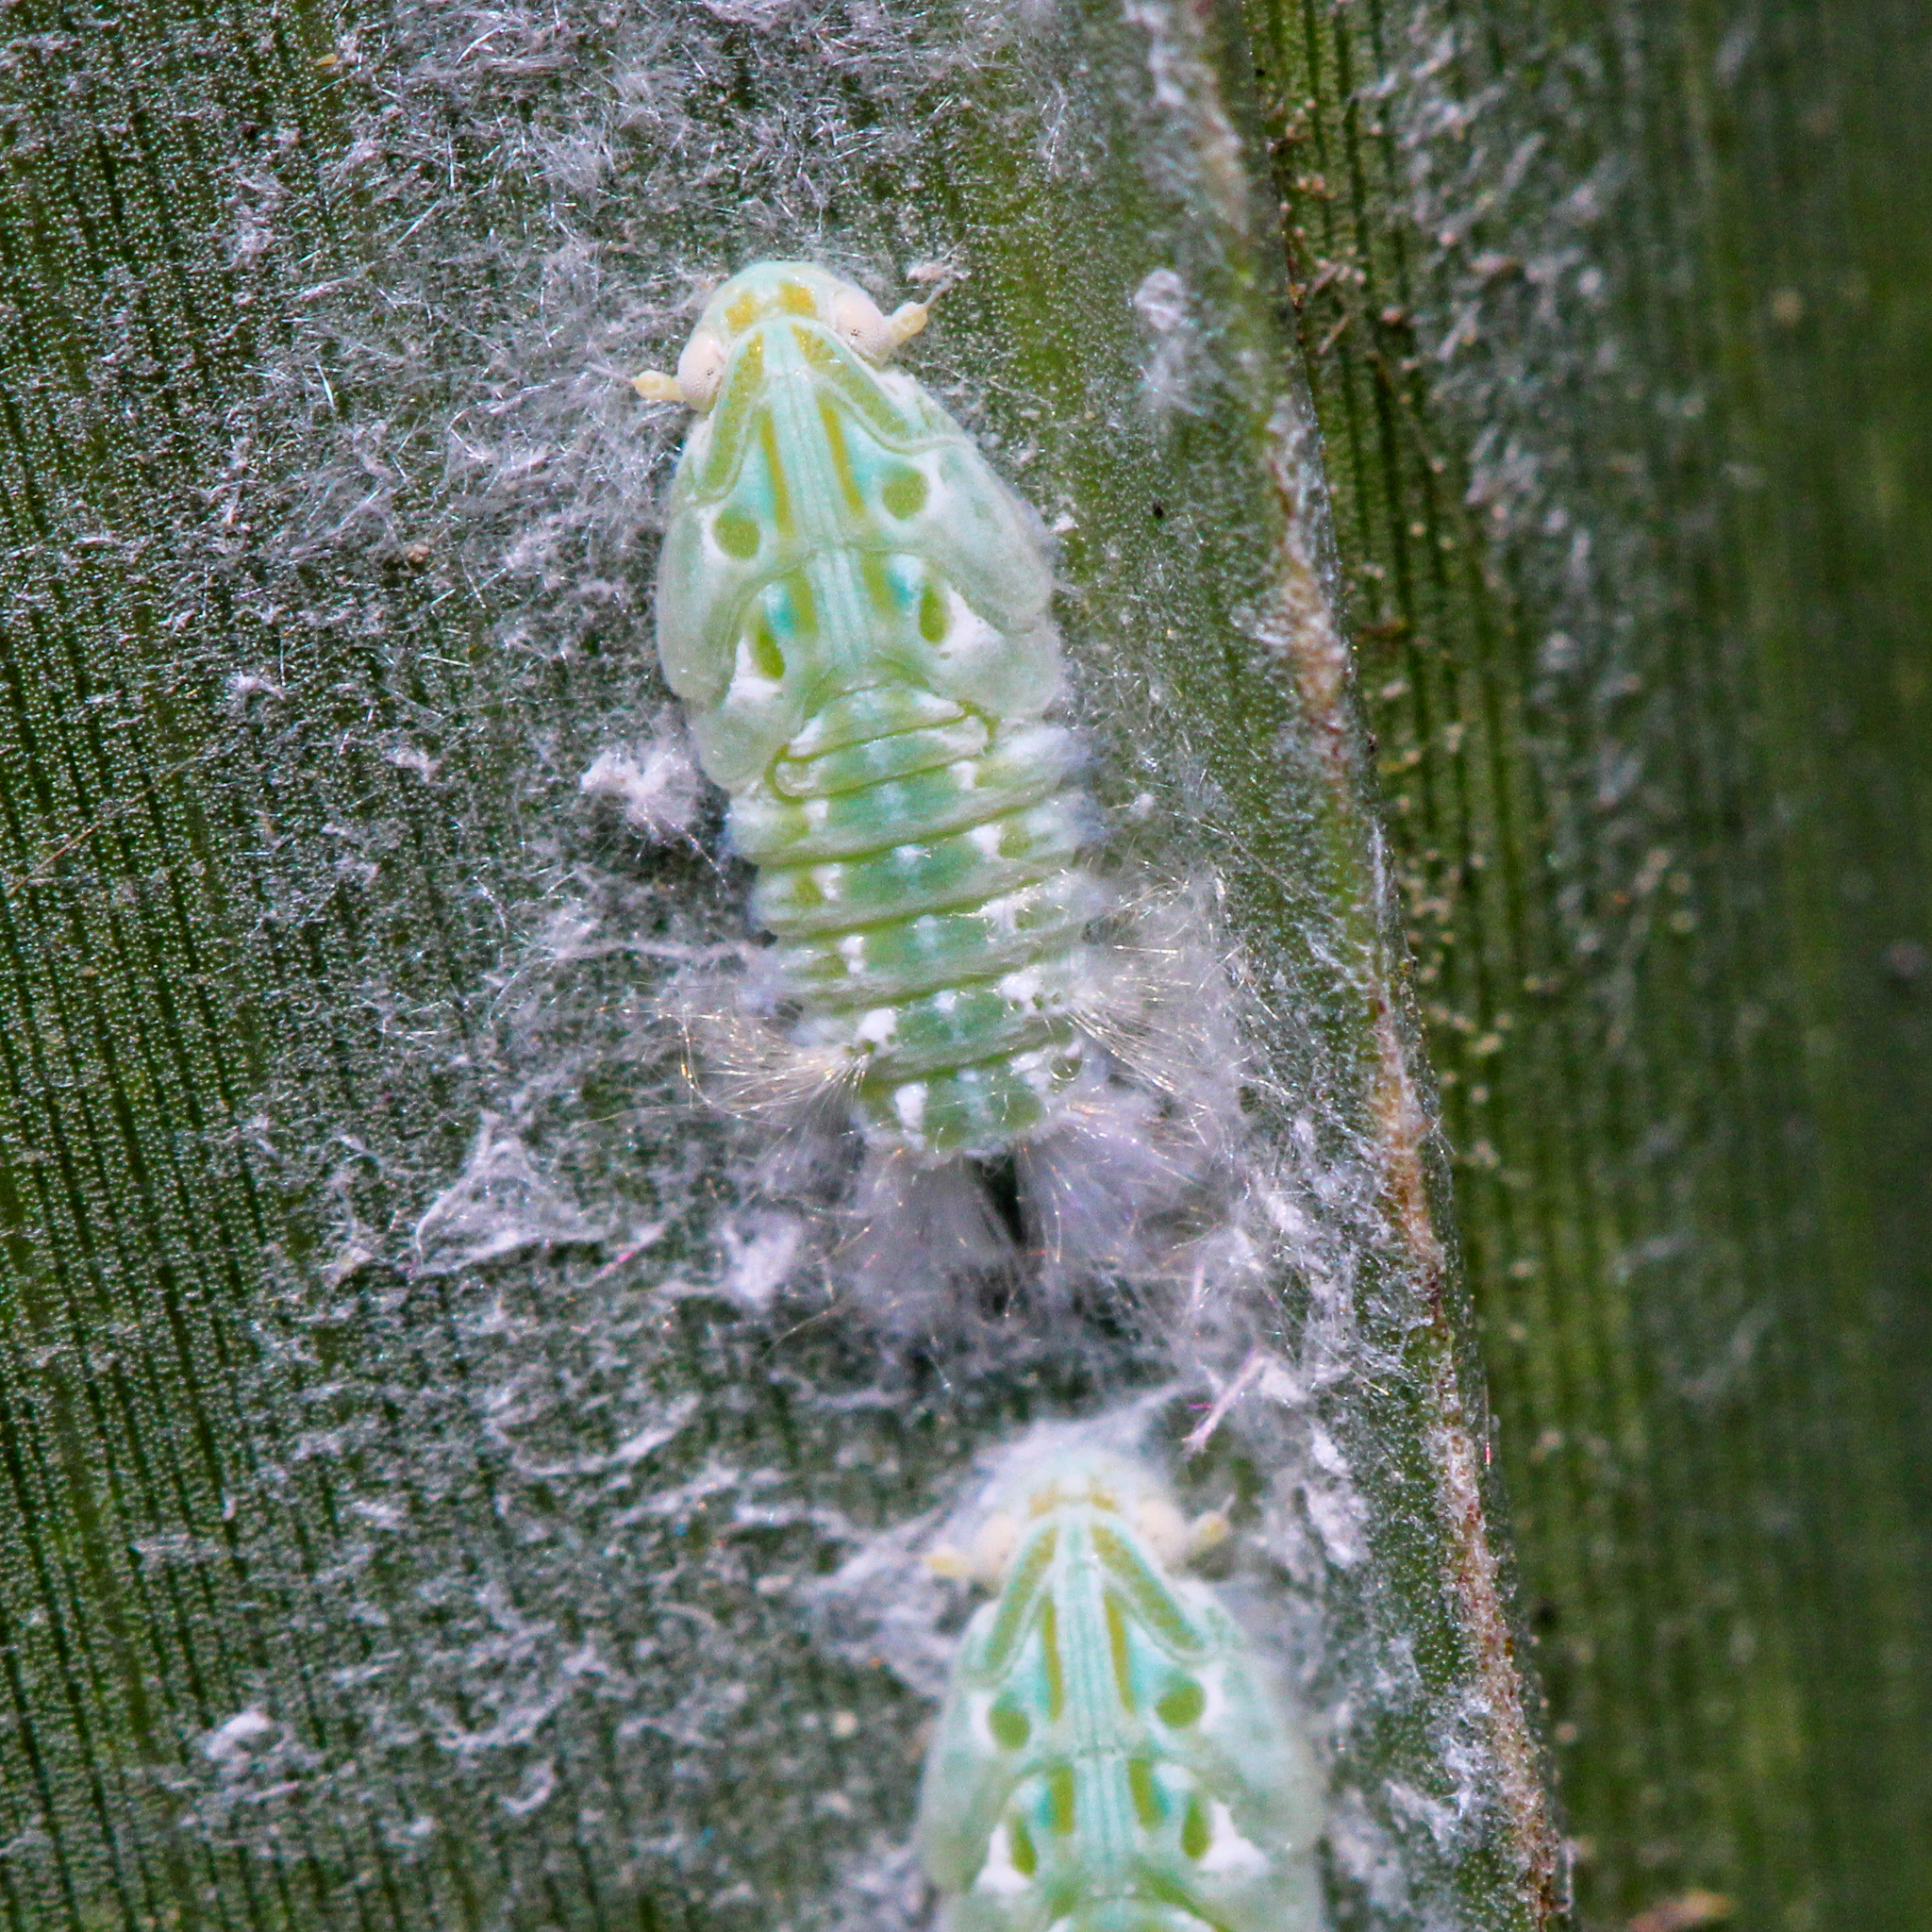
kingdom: Animalia
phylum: Arthropoda
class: Insecta
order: Hemiptera
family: Flatidae
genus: Ormenaria
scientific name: Ormenaria rufifascia
